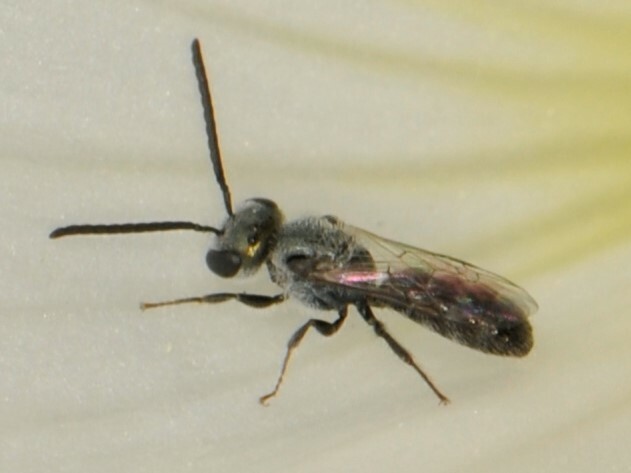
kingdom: Animalia
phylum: Arthropoda
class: Insecta
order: Hymenoptera
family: Halictidae
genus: Dialictus
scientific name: Dialictus
